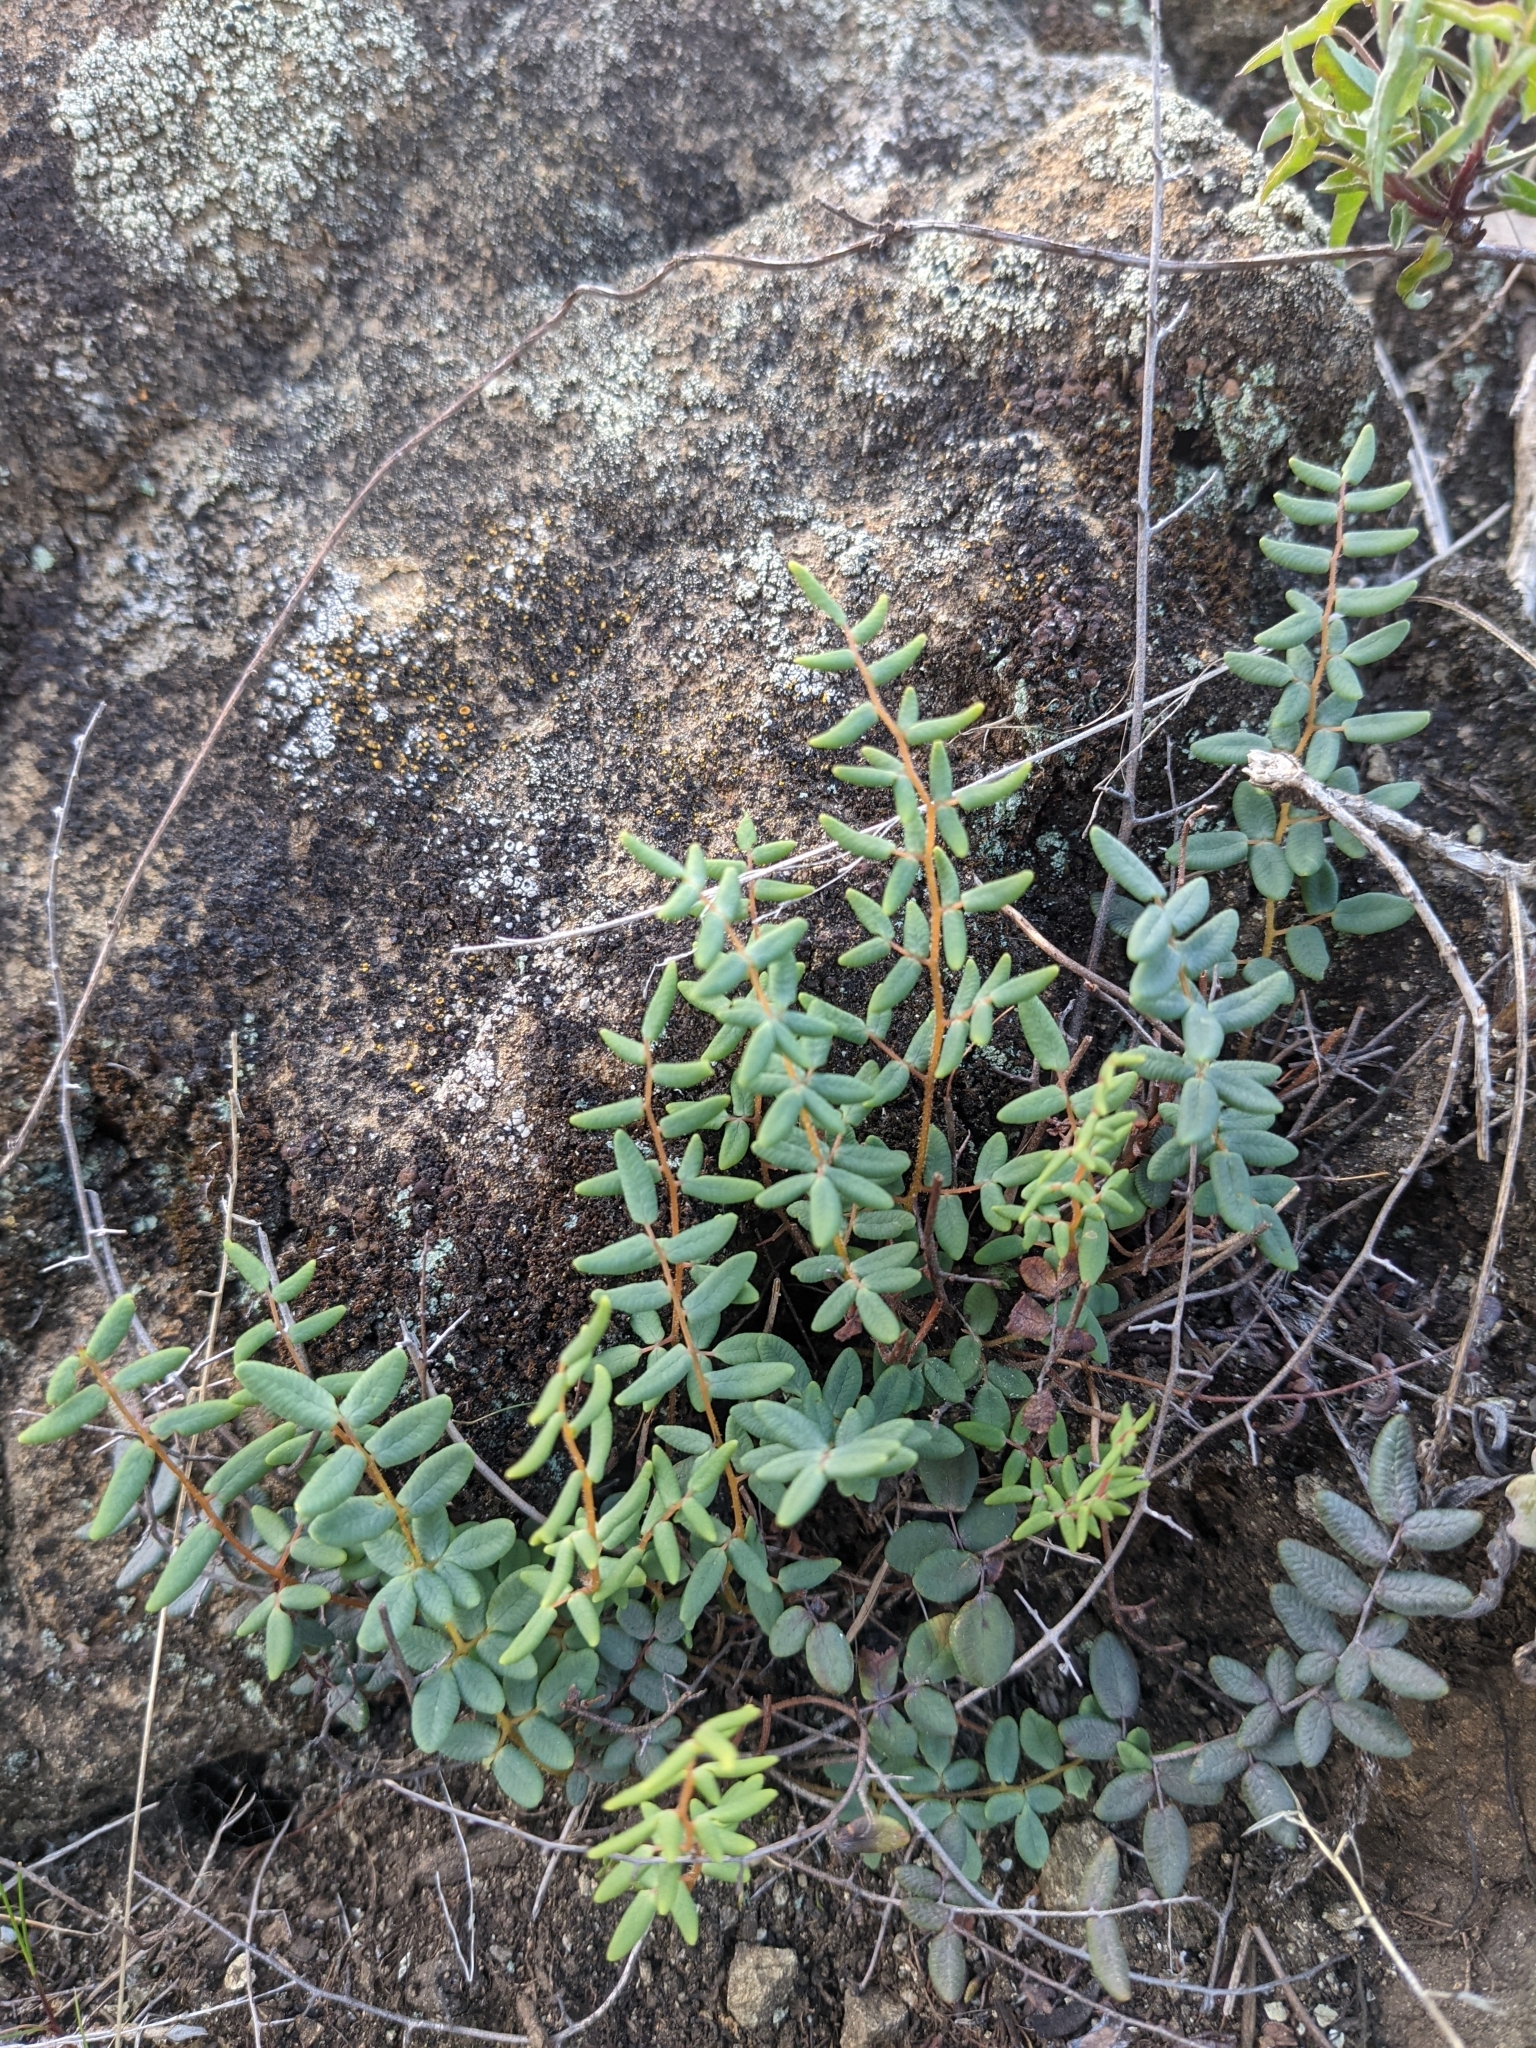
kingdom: Plantae
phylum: Tracheophyta
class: Polypodiopsida
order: Polypodiales
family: Pteridaceae
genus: Pellaea
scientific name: Pellaea andromedifolia
